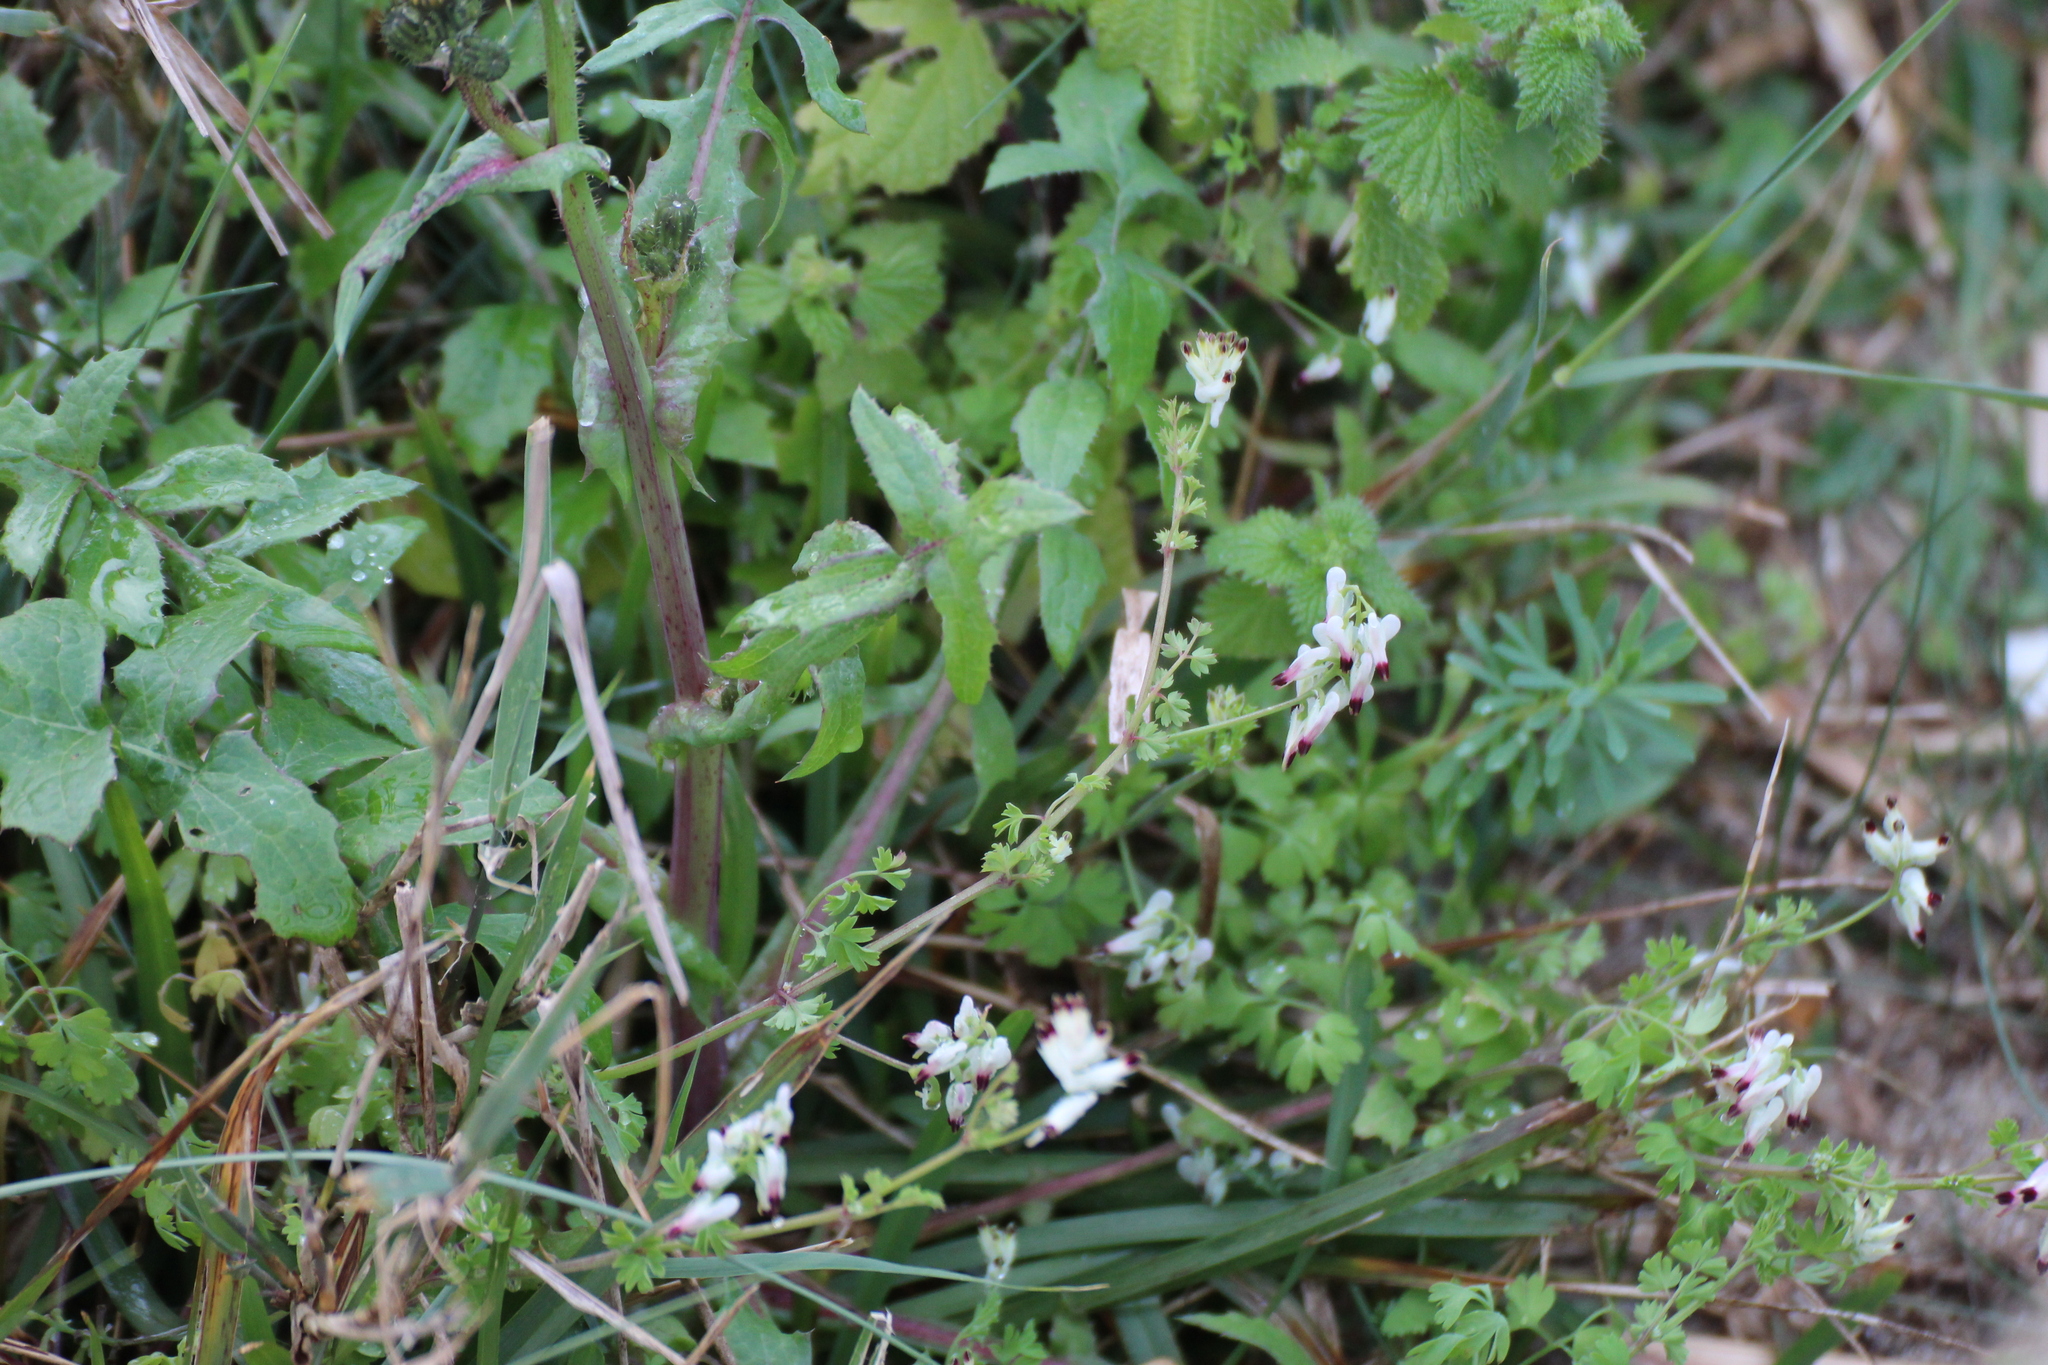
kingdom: Plantae
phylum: Tracheophyta
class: Magnoliopsida
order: Ranunculales
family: Papaveraceae
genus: Fumaria
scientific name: Fumaria capreolata
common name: White ramping-fumitory
